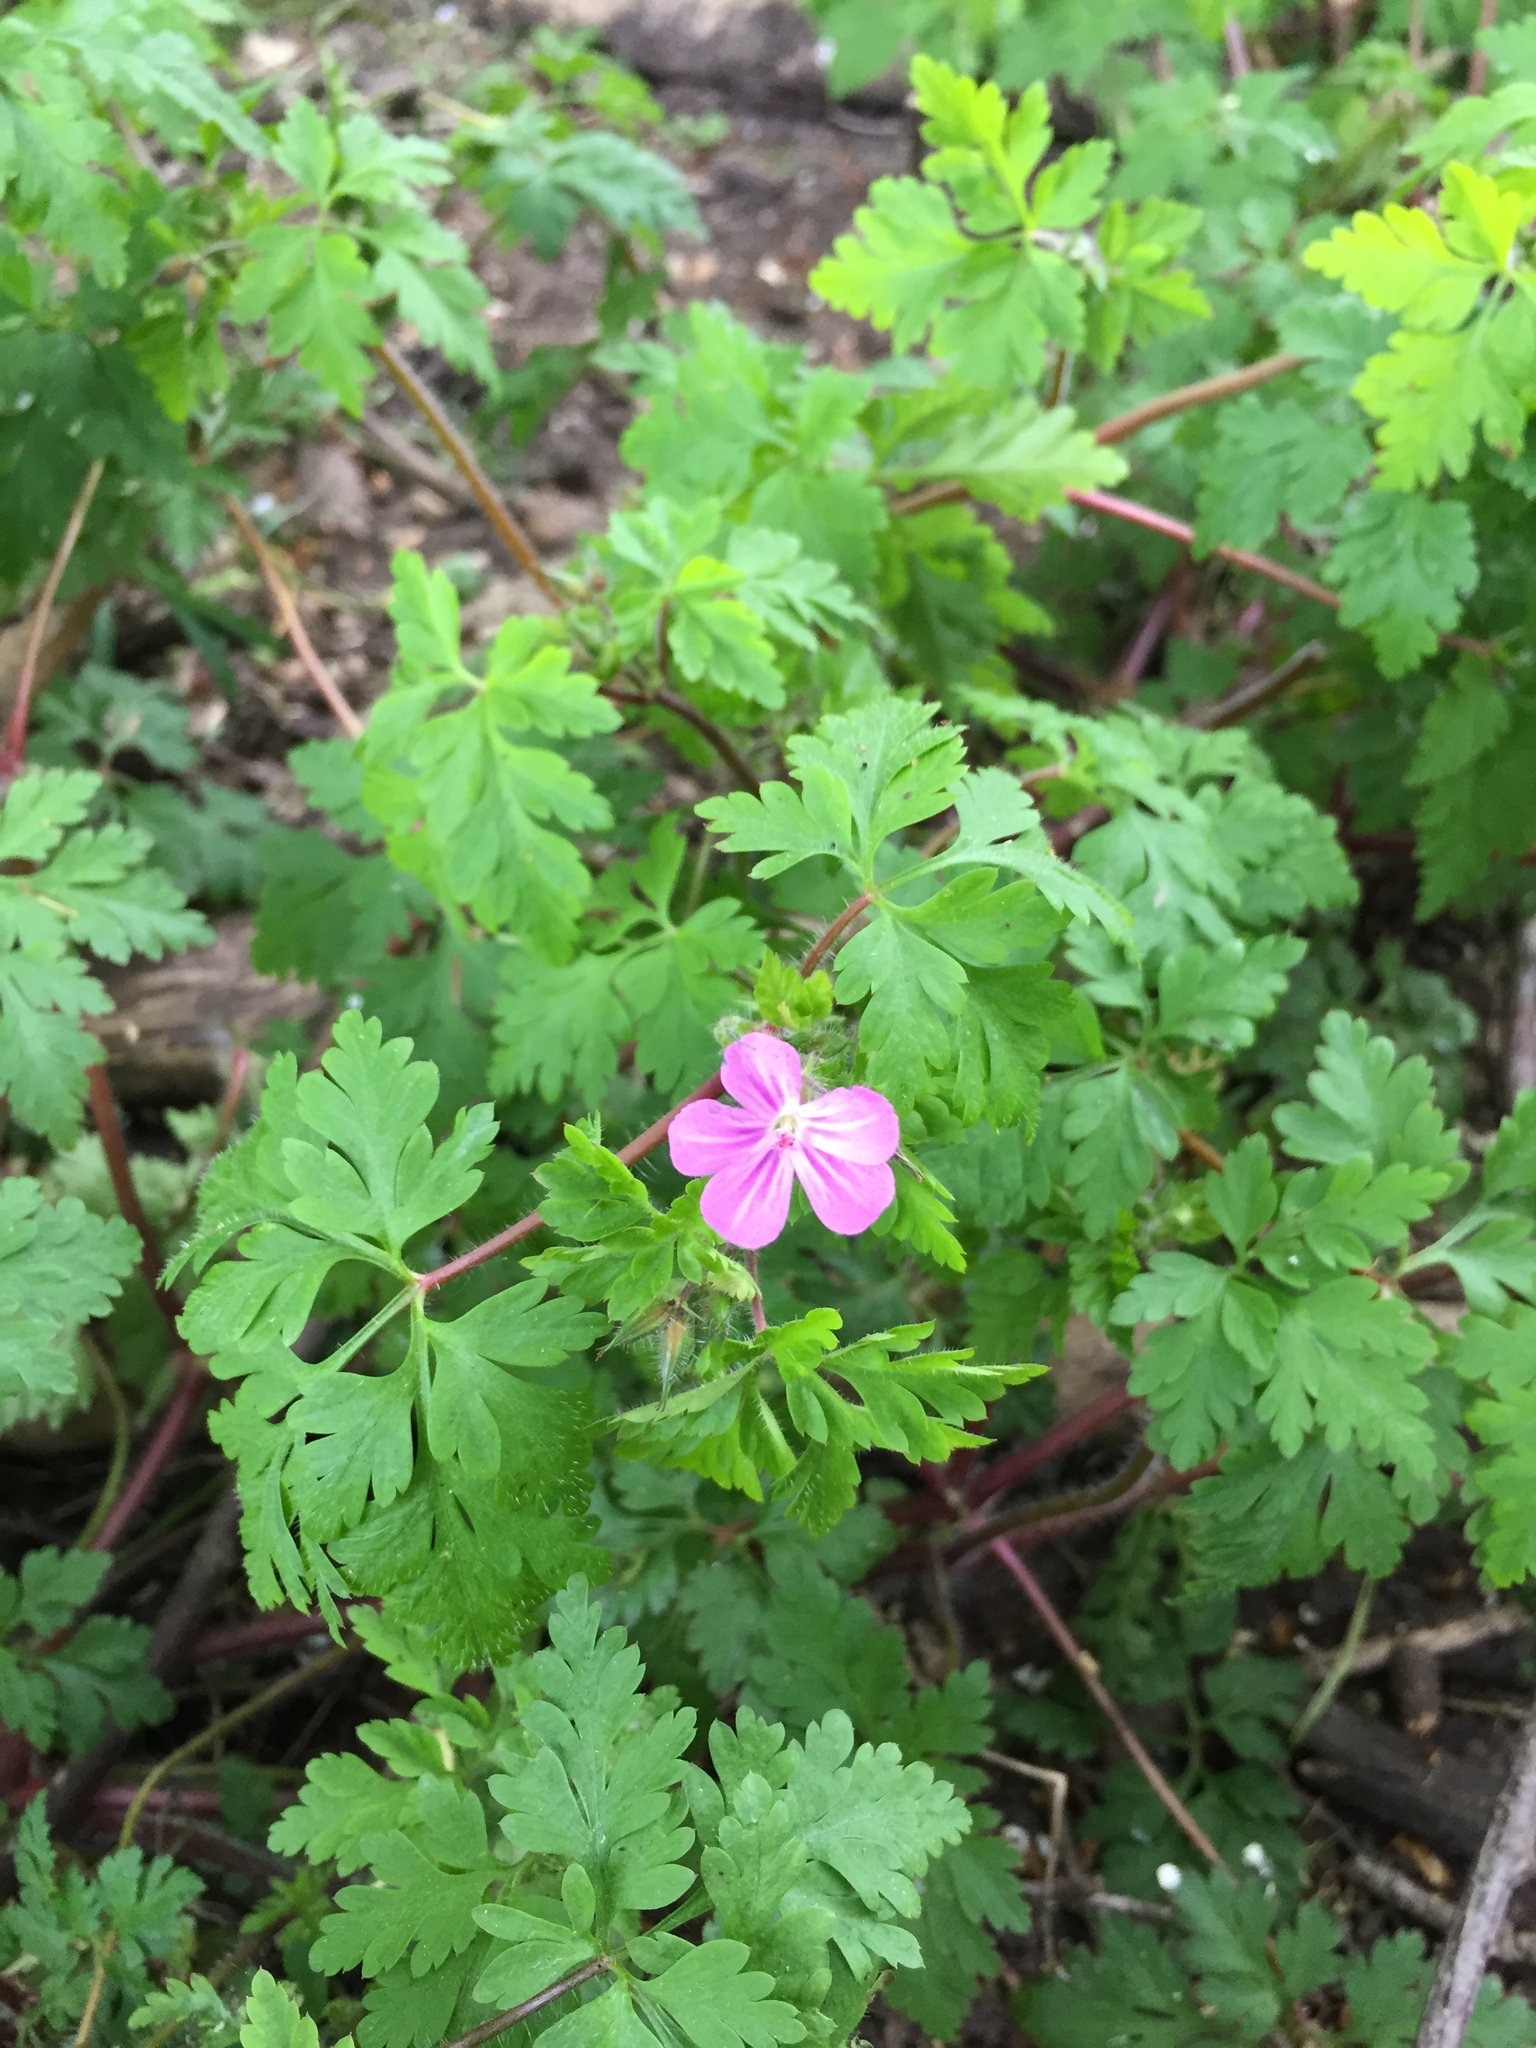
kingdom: Plantae
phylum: Tracheophyta
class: Magnoliopsida
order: Geraniales
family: Geraniaceae
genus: Geranium
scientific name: Geranium robertianum
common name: Herb-robert
